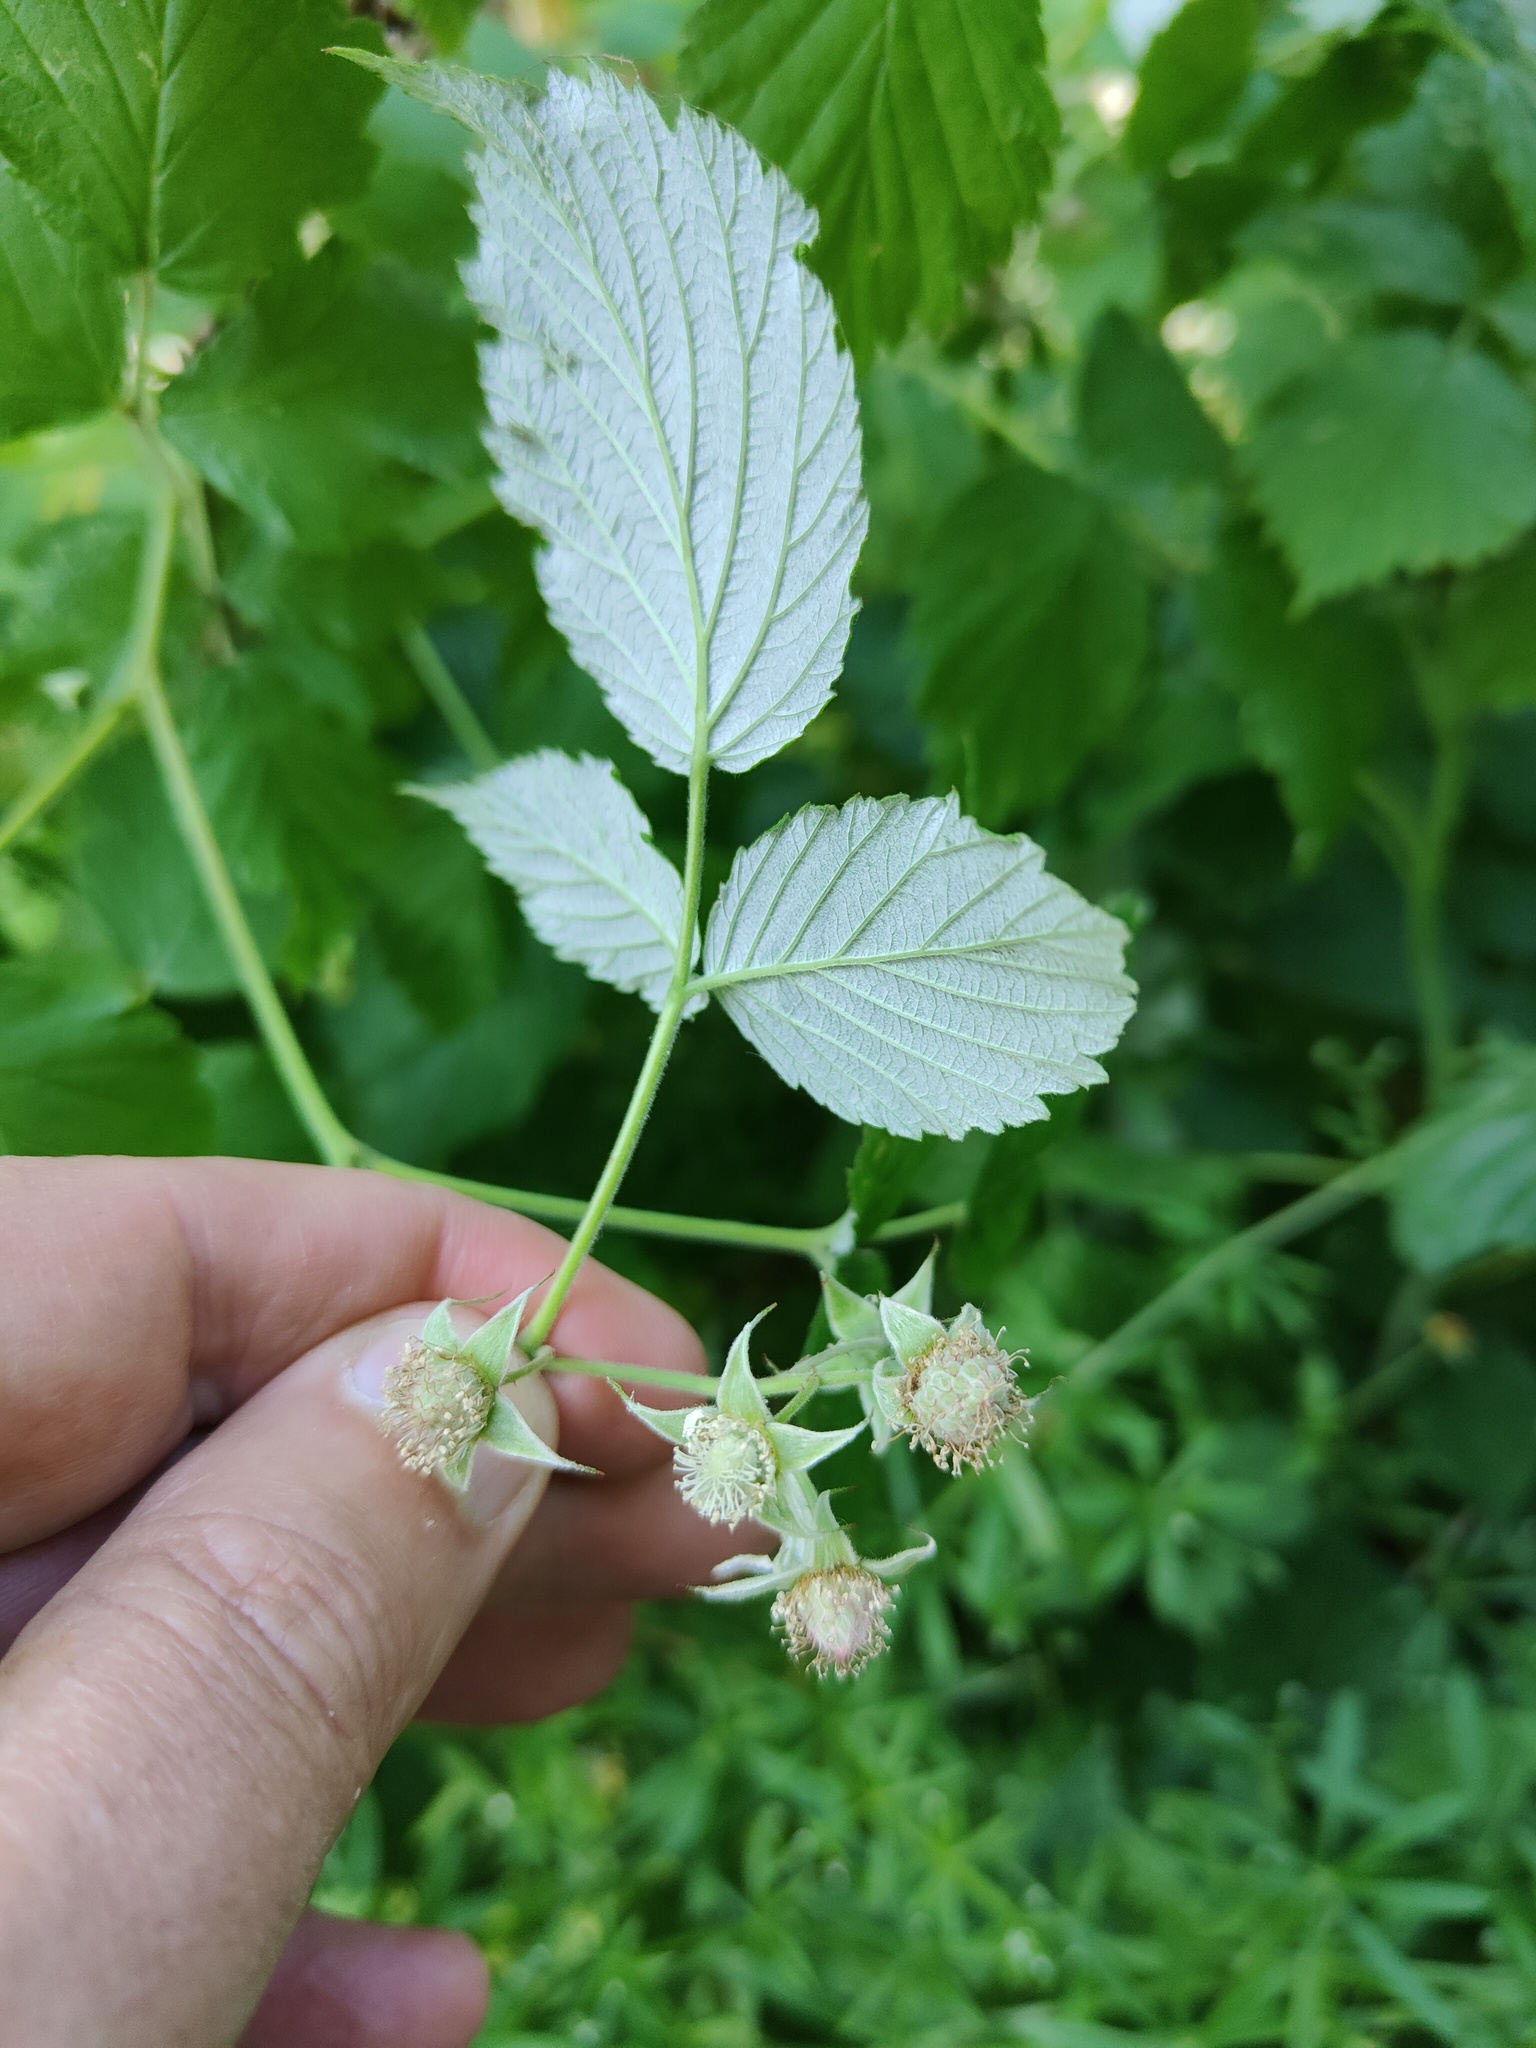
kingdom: Plantae
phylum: Tracheophyta
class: Magnoliopsida
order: Rosales
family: Rosaceae
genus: Rubus
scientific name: Rubus idaeus
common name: Raspberry
